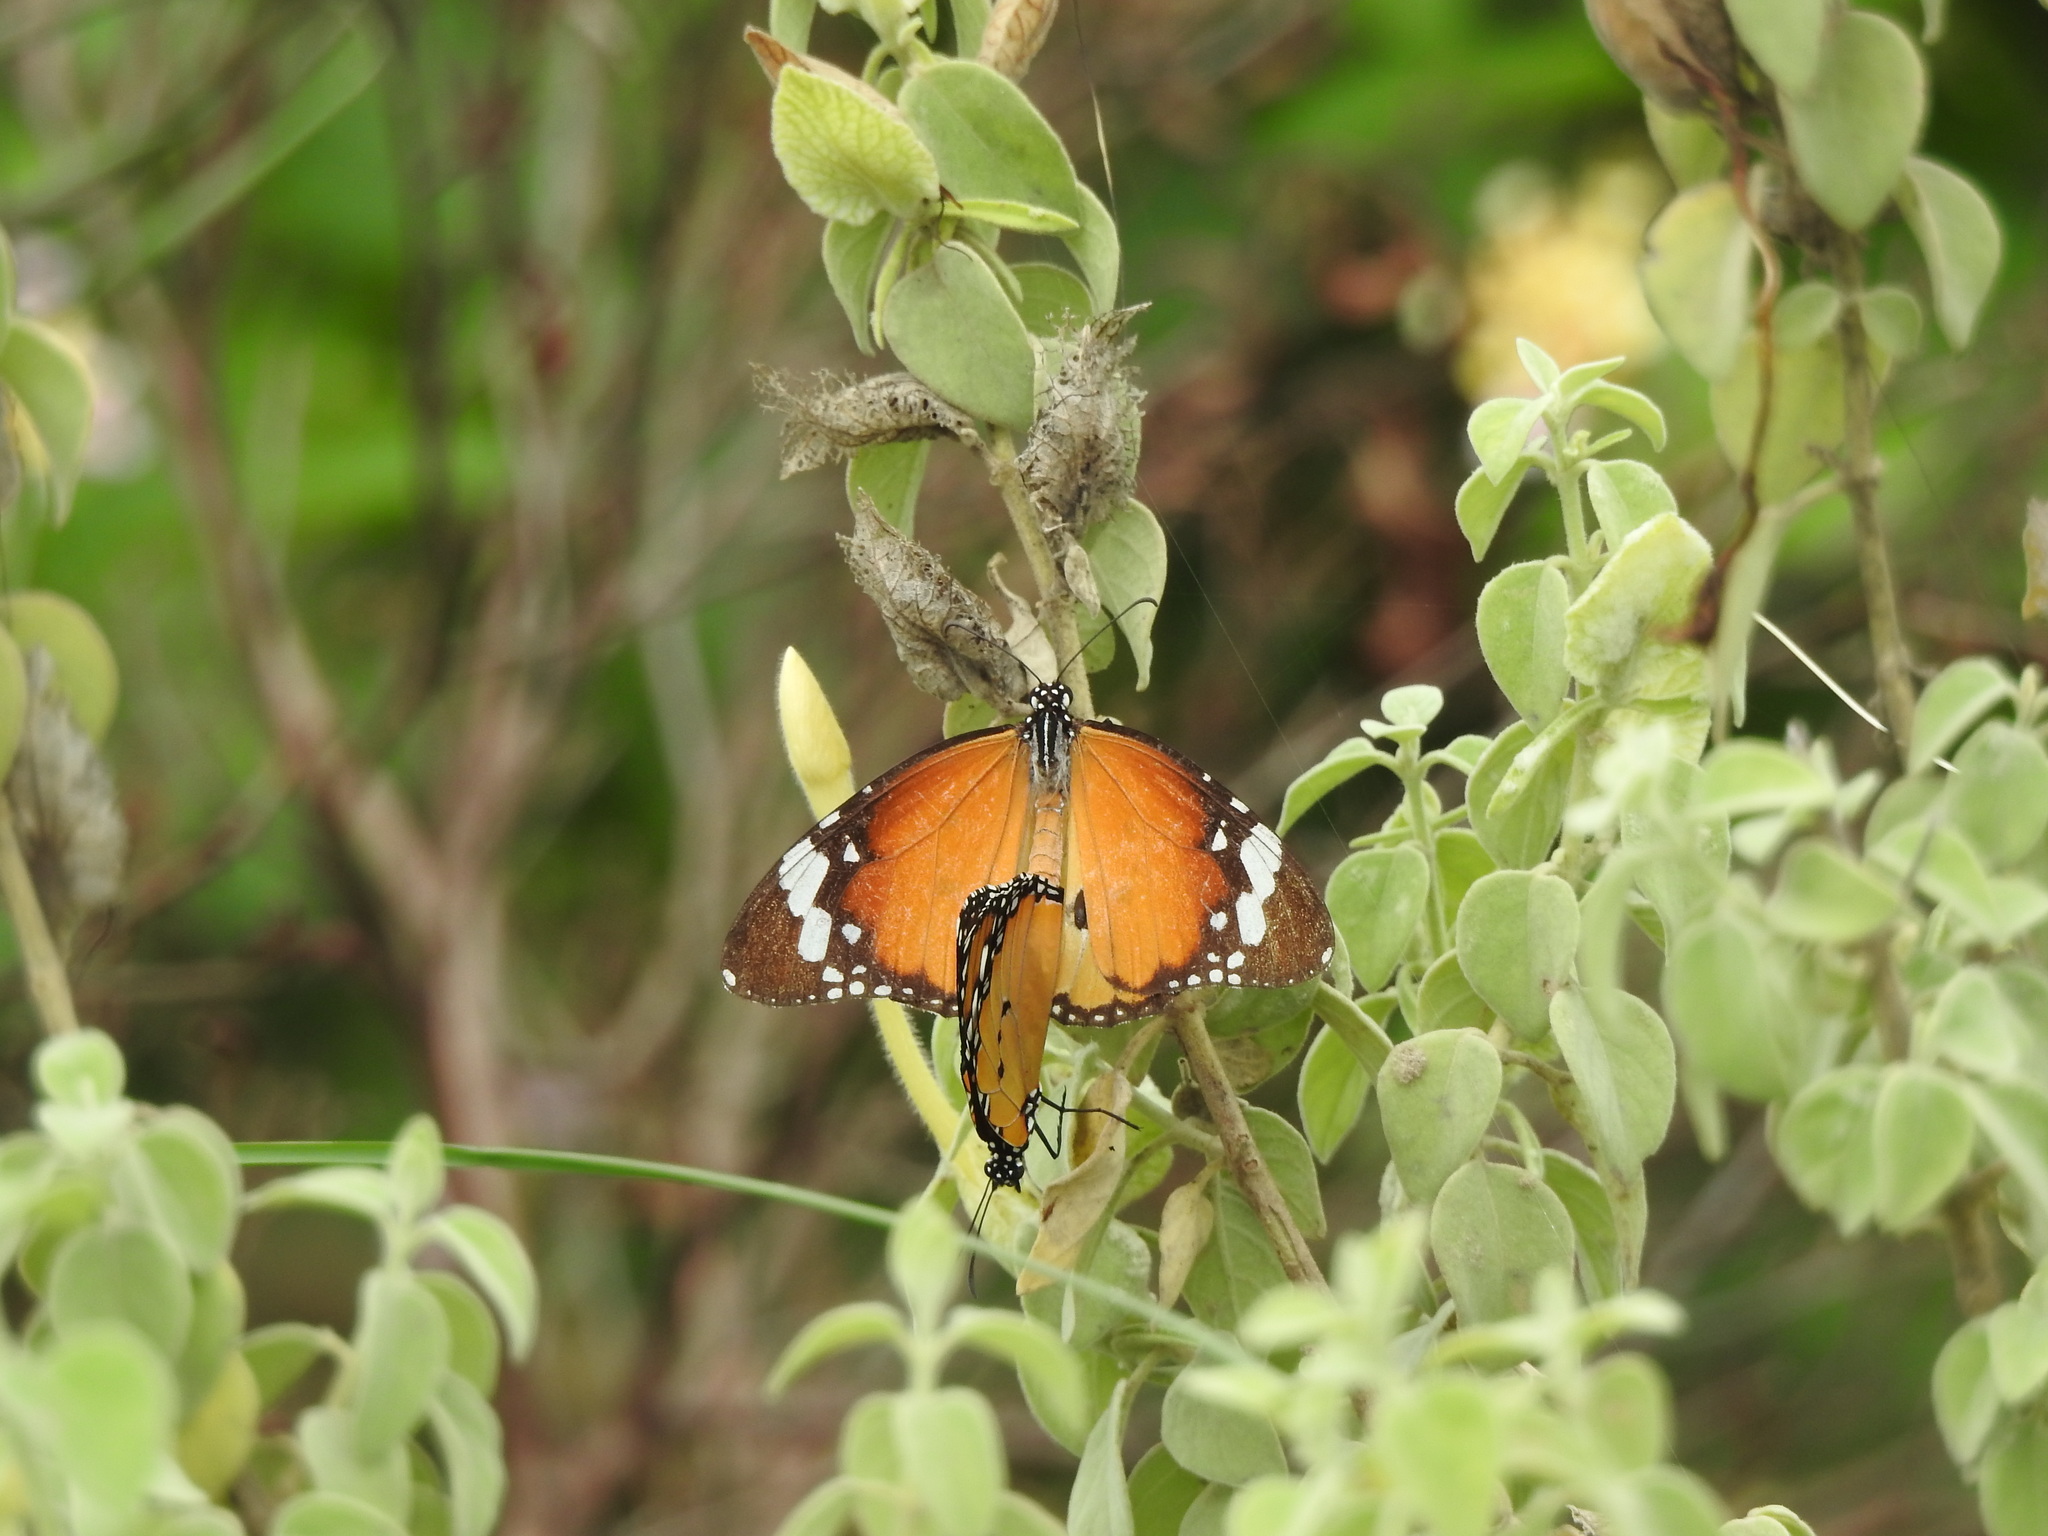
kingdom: Animalia
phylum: Arthropoda
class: Insecta
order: Lepidoptera
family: Nymphalidae
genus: Danaus
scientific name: Danaus chrysippus
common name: Plain tiger
